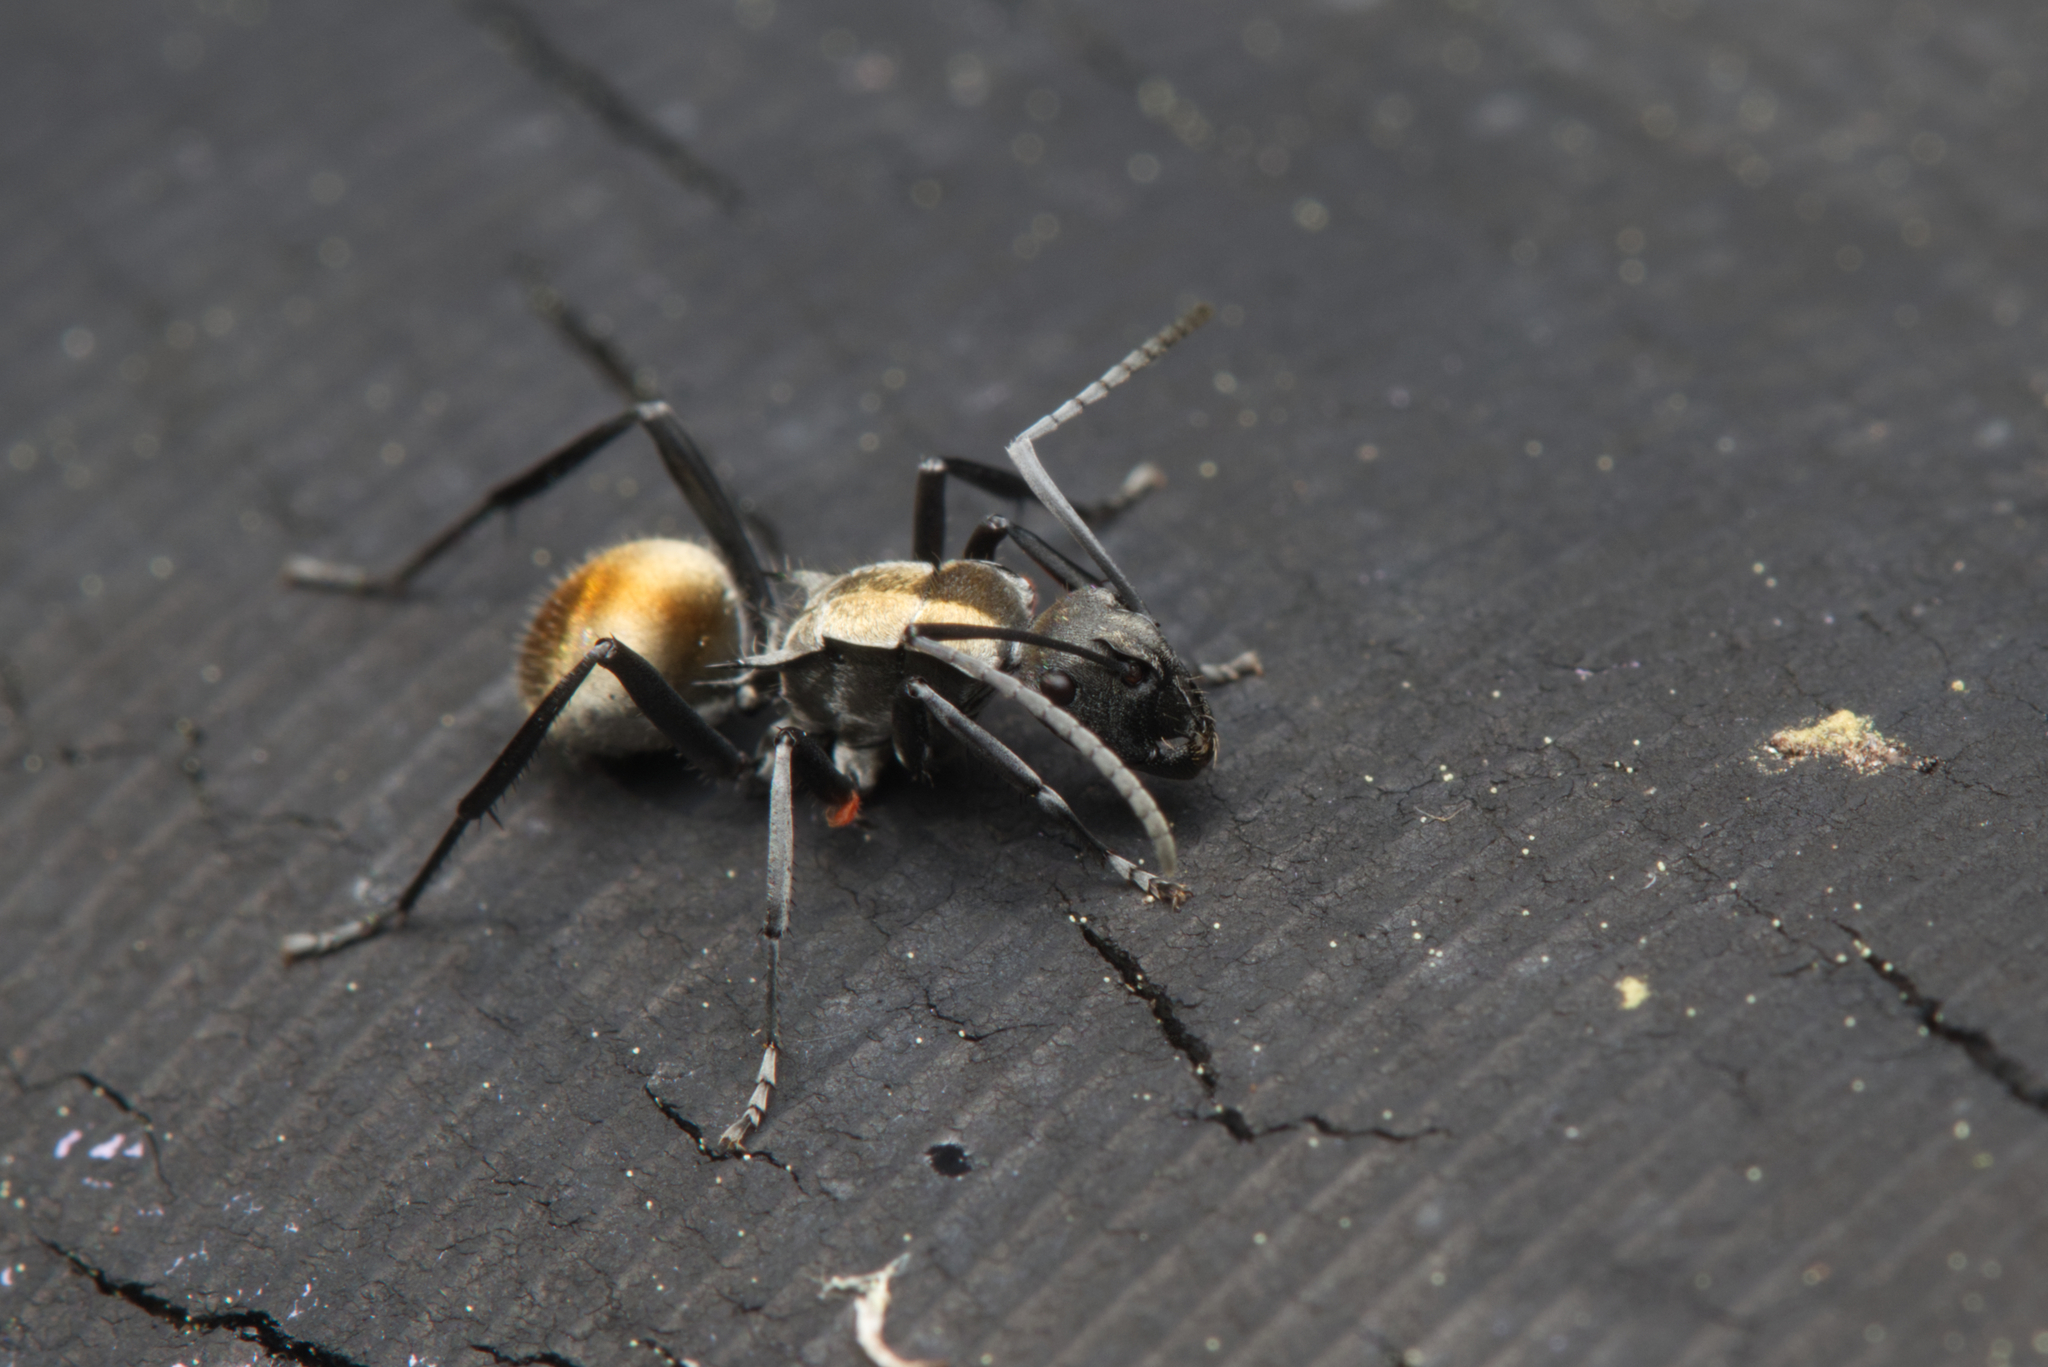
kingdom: Animalia
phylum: Arthropoda
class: Insecta
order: Hymenoptera
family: Formicidae
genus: Polyrhachis
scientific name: Polyrhachis ammon
